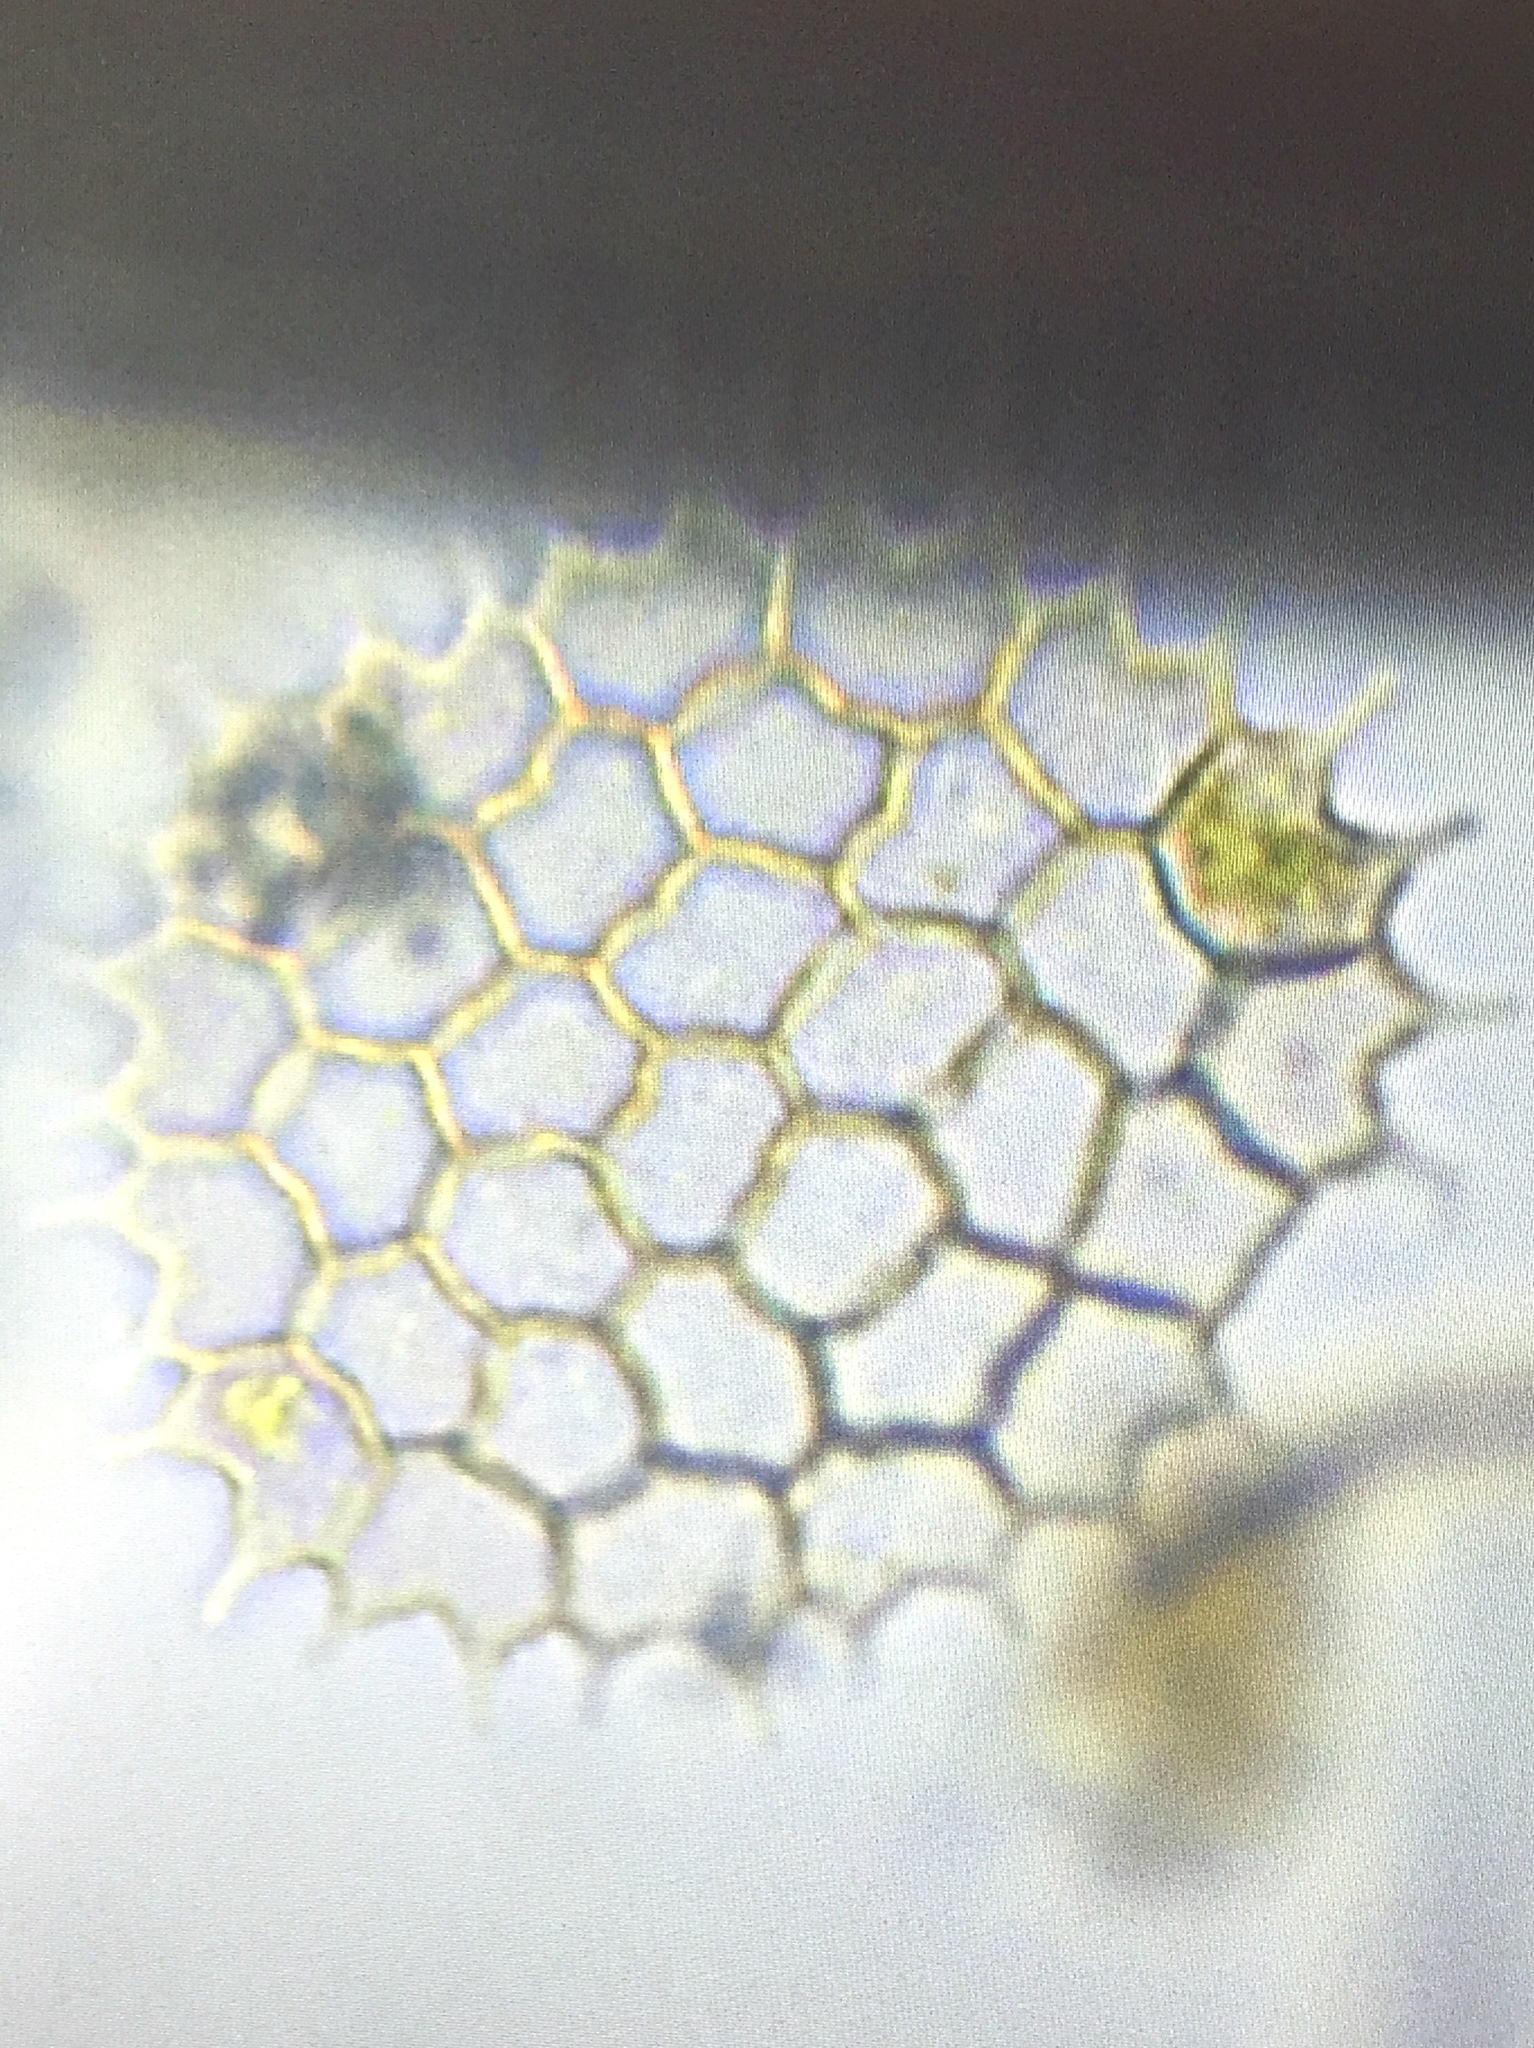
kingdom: Plantae
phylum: Chlorophyta
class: Chlorophyceae
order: Sphaeropleales
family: Hydrodictyaceae
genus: Pseudopediastrum
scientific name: Pseudopediastrum boryanum
